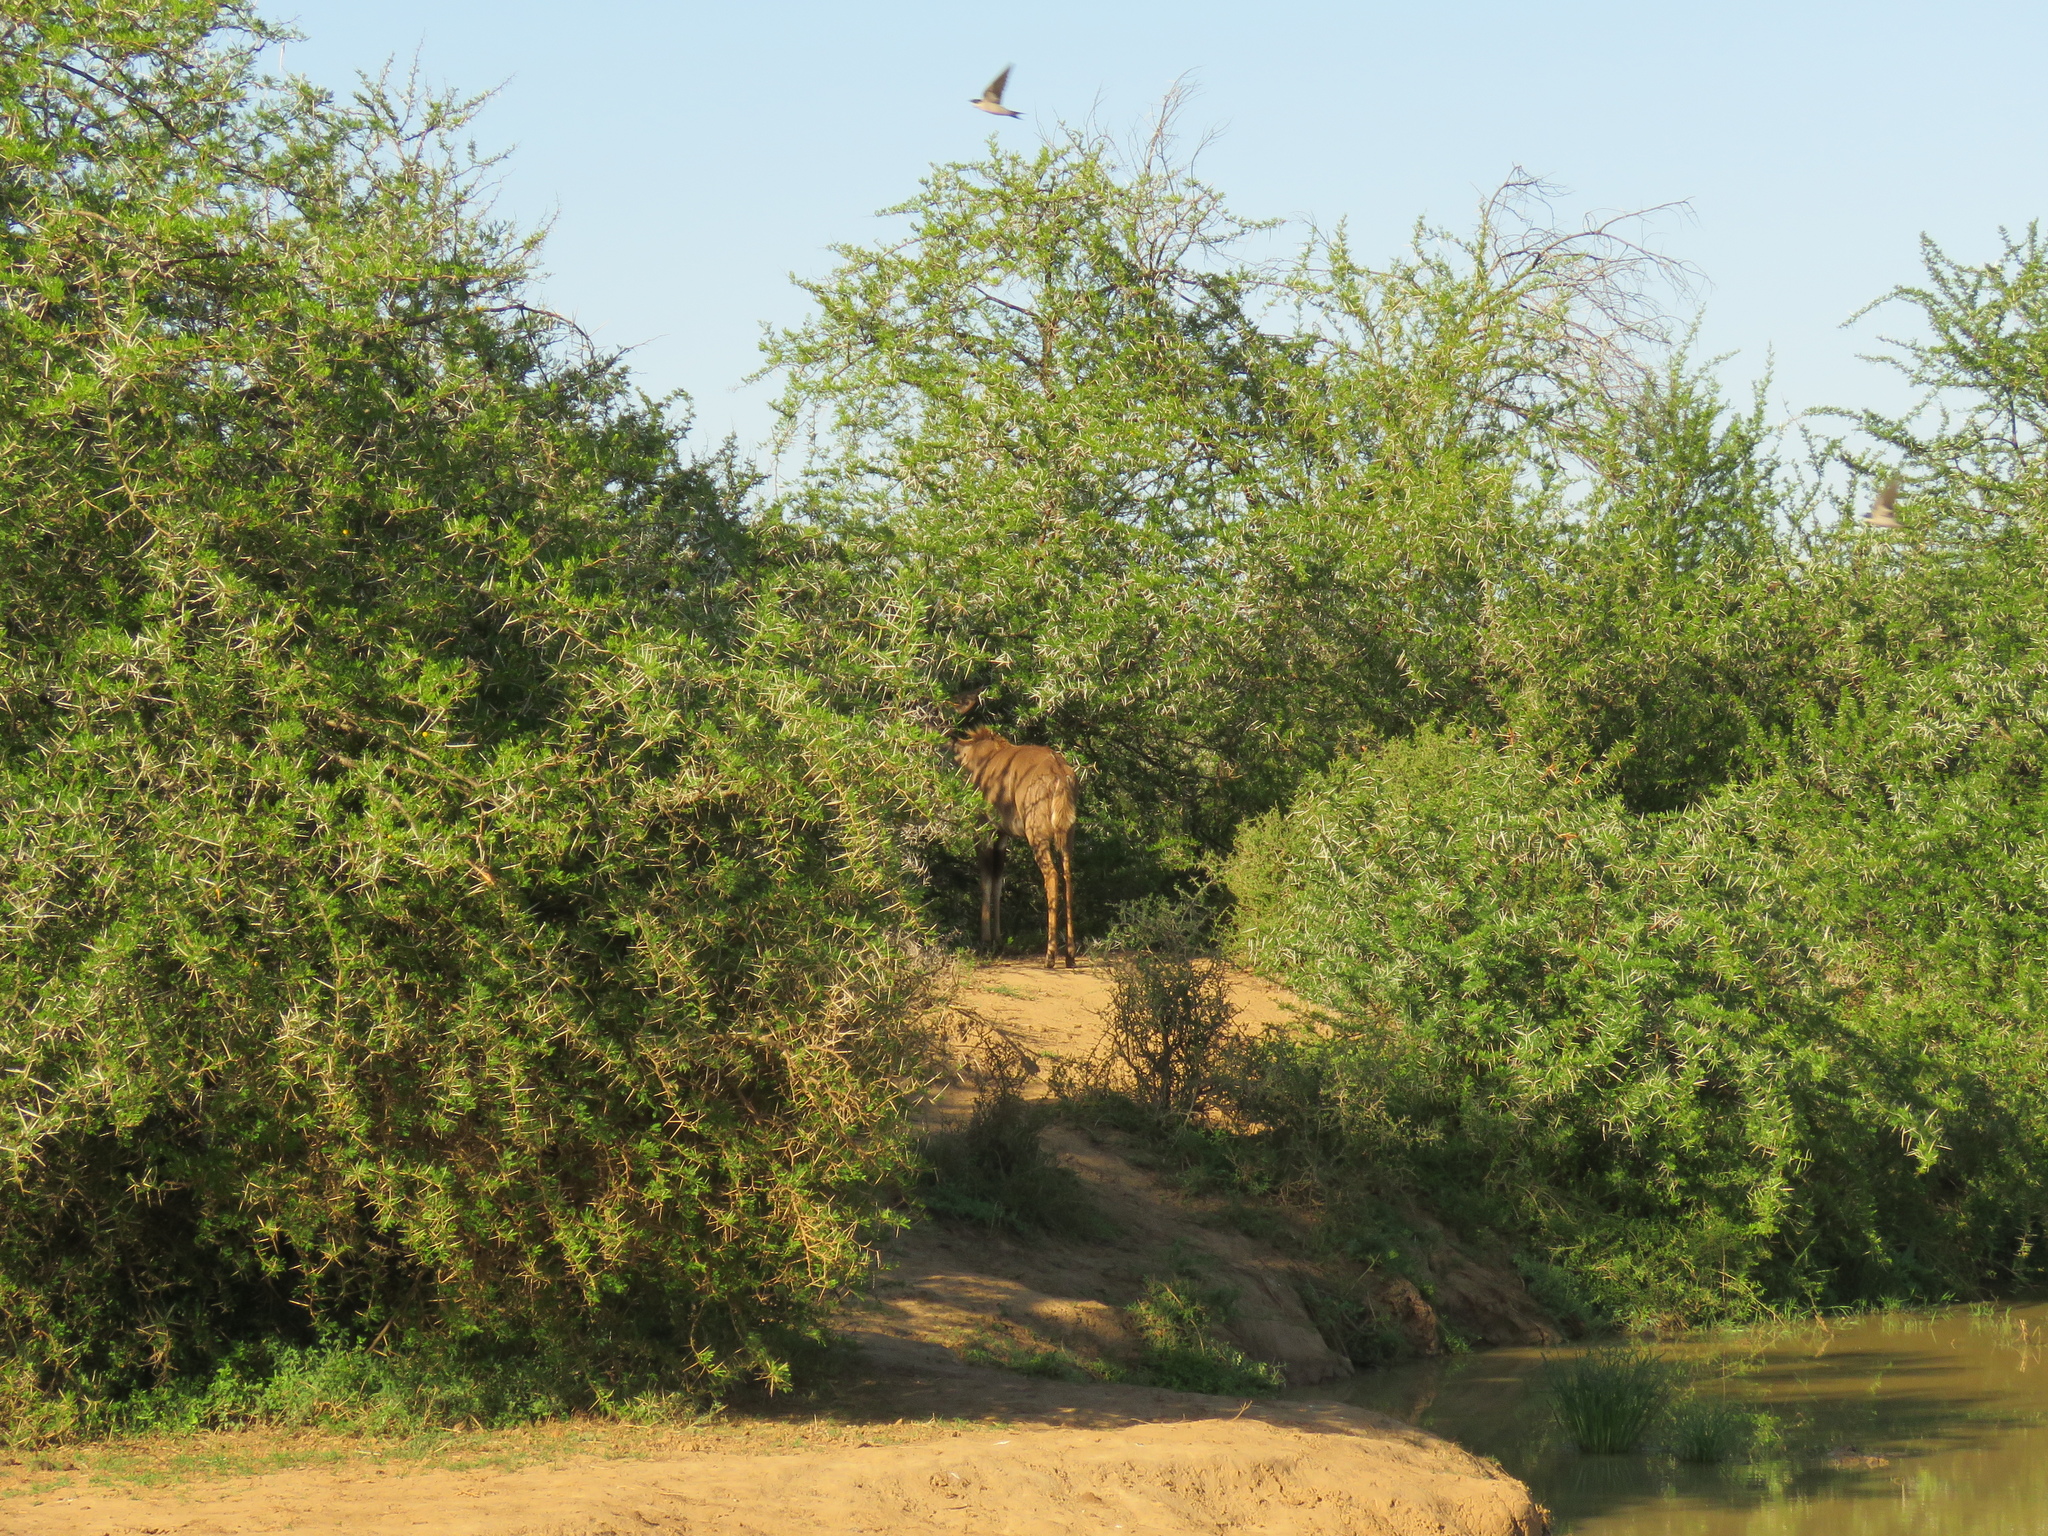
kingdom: Animalia
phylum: Chordata
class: Aves
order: Passeriformes
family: Hirundinidae
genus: Hirundo
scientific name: Hirundo dimidiata
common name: Pearl-breasted swallow
